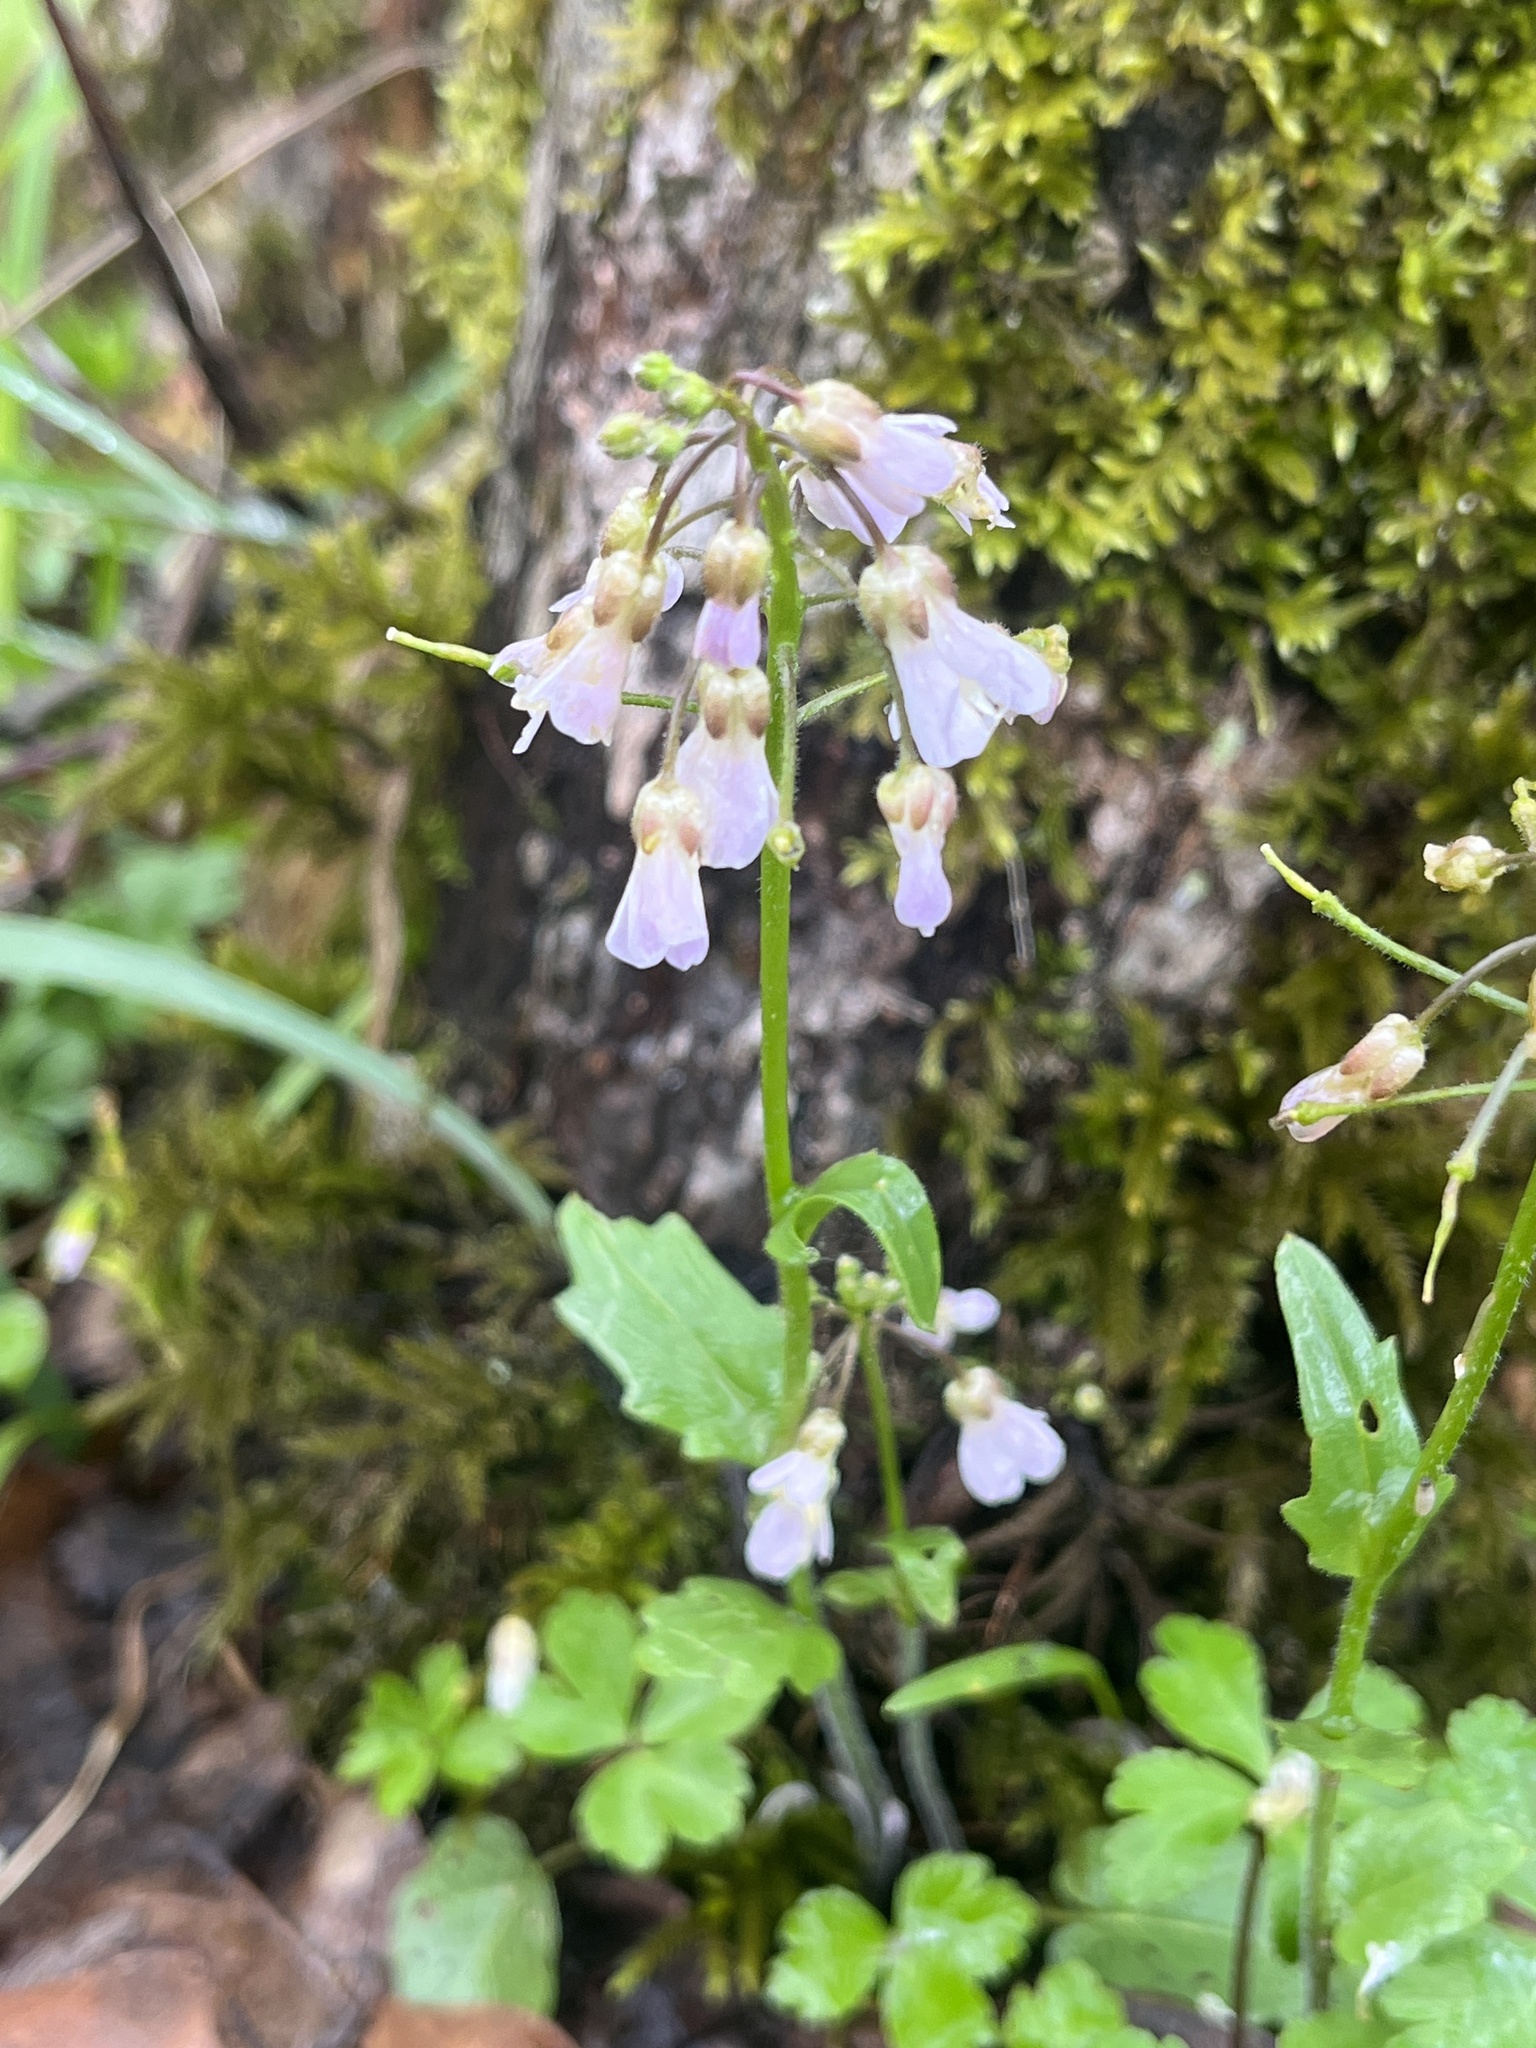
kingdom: Plantae
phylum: Tracheophyta
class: Magnoliopsida
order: Brassicales
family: Brassicaceae
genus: Cardamine
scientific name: Cardamine douglassii
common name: Purple cress
